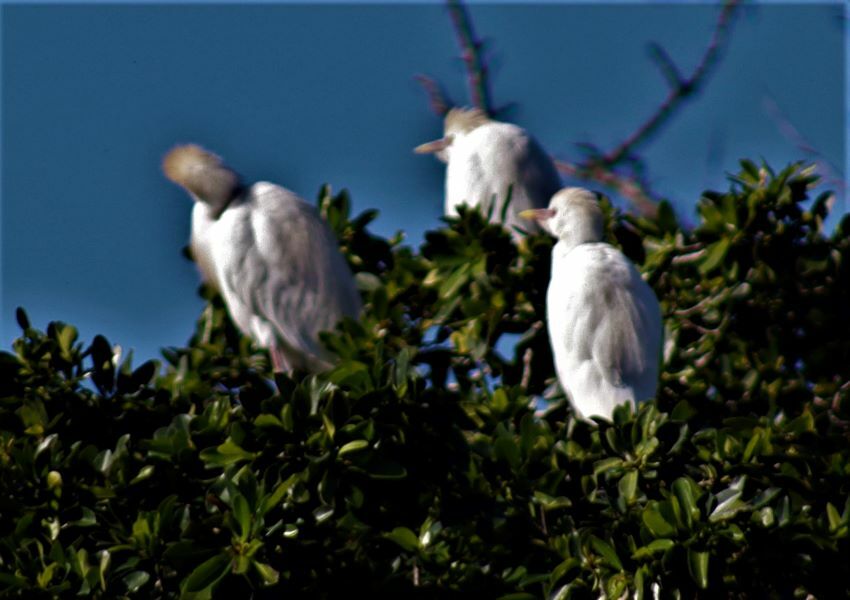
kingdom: Animalia
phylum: Chordata
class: Aves
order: Pelecaniformes
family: Ardeidae
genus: Bubulcus
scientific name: Bubulcus ibis
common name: Cattle egret
